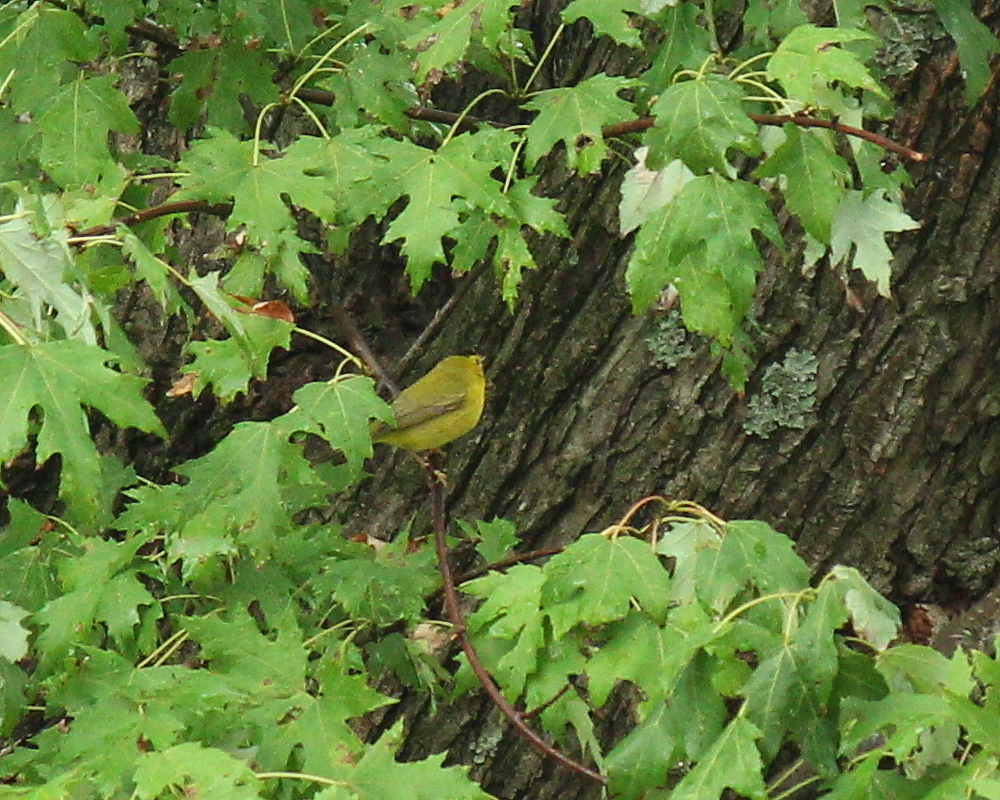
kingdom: Animalia
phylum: Chordata
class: Aves
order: Passeriformes
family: Parulidae
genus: Cardellina
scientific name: Cardellina pusilla
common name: Wilson's warbler
